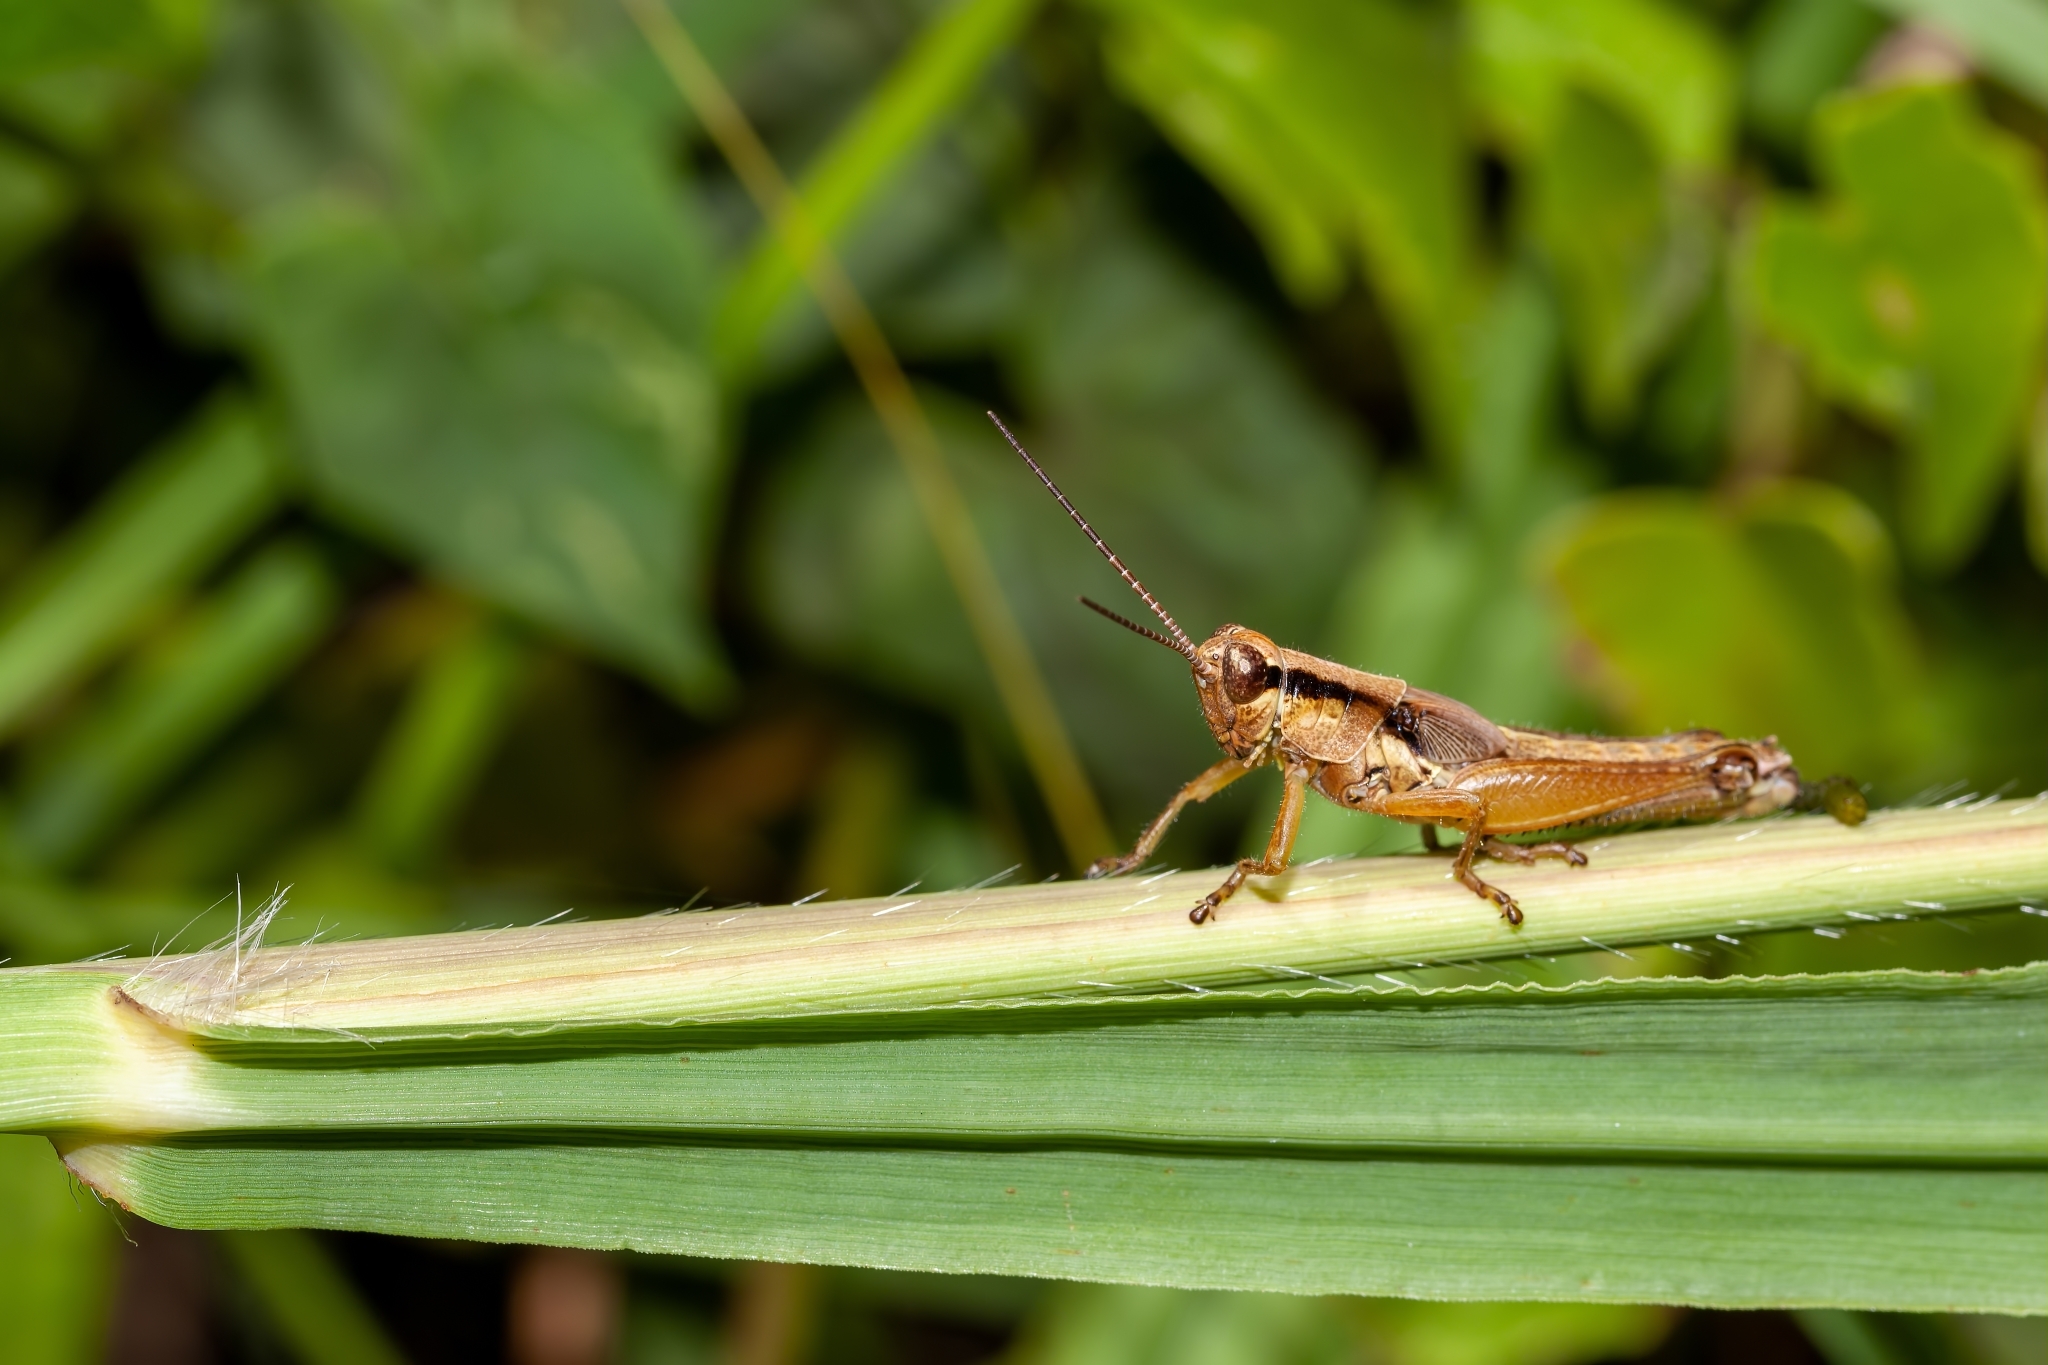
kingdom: Animalia
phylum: Arthropoda
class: Insecta
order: Orthoptera
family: Acrididae
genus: Paroxya
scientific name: Paroxya clavuligera
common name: Olive-green swamp grasshopper
